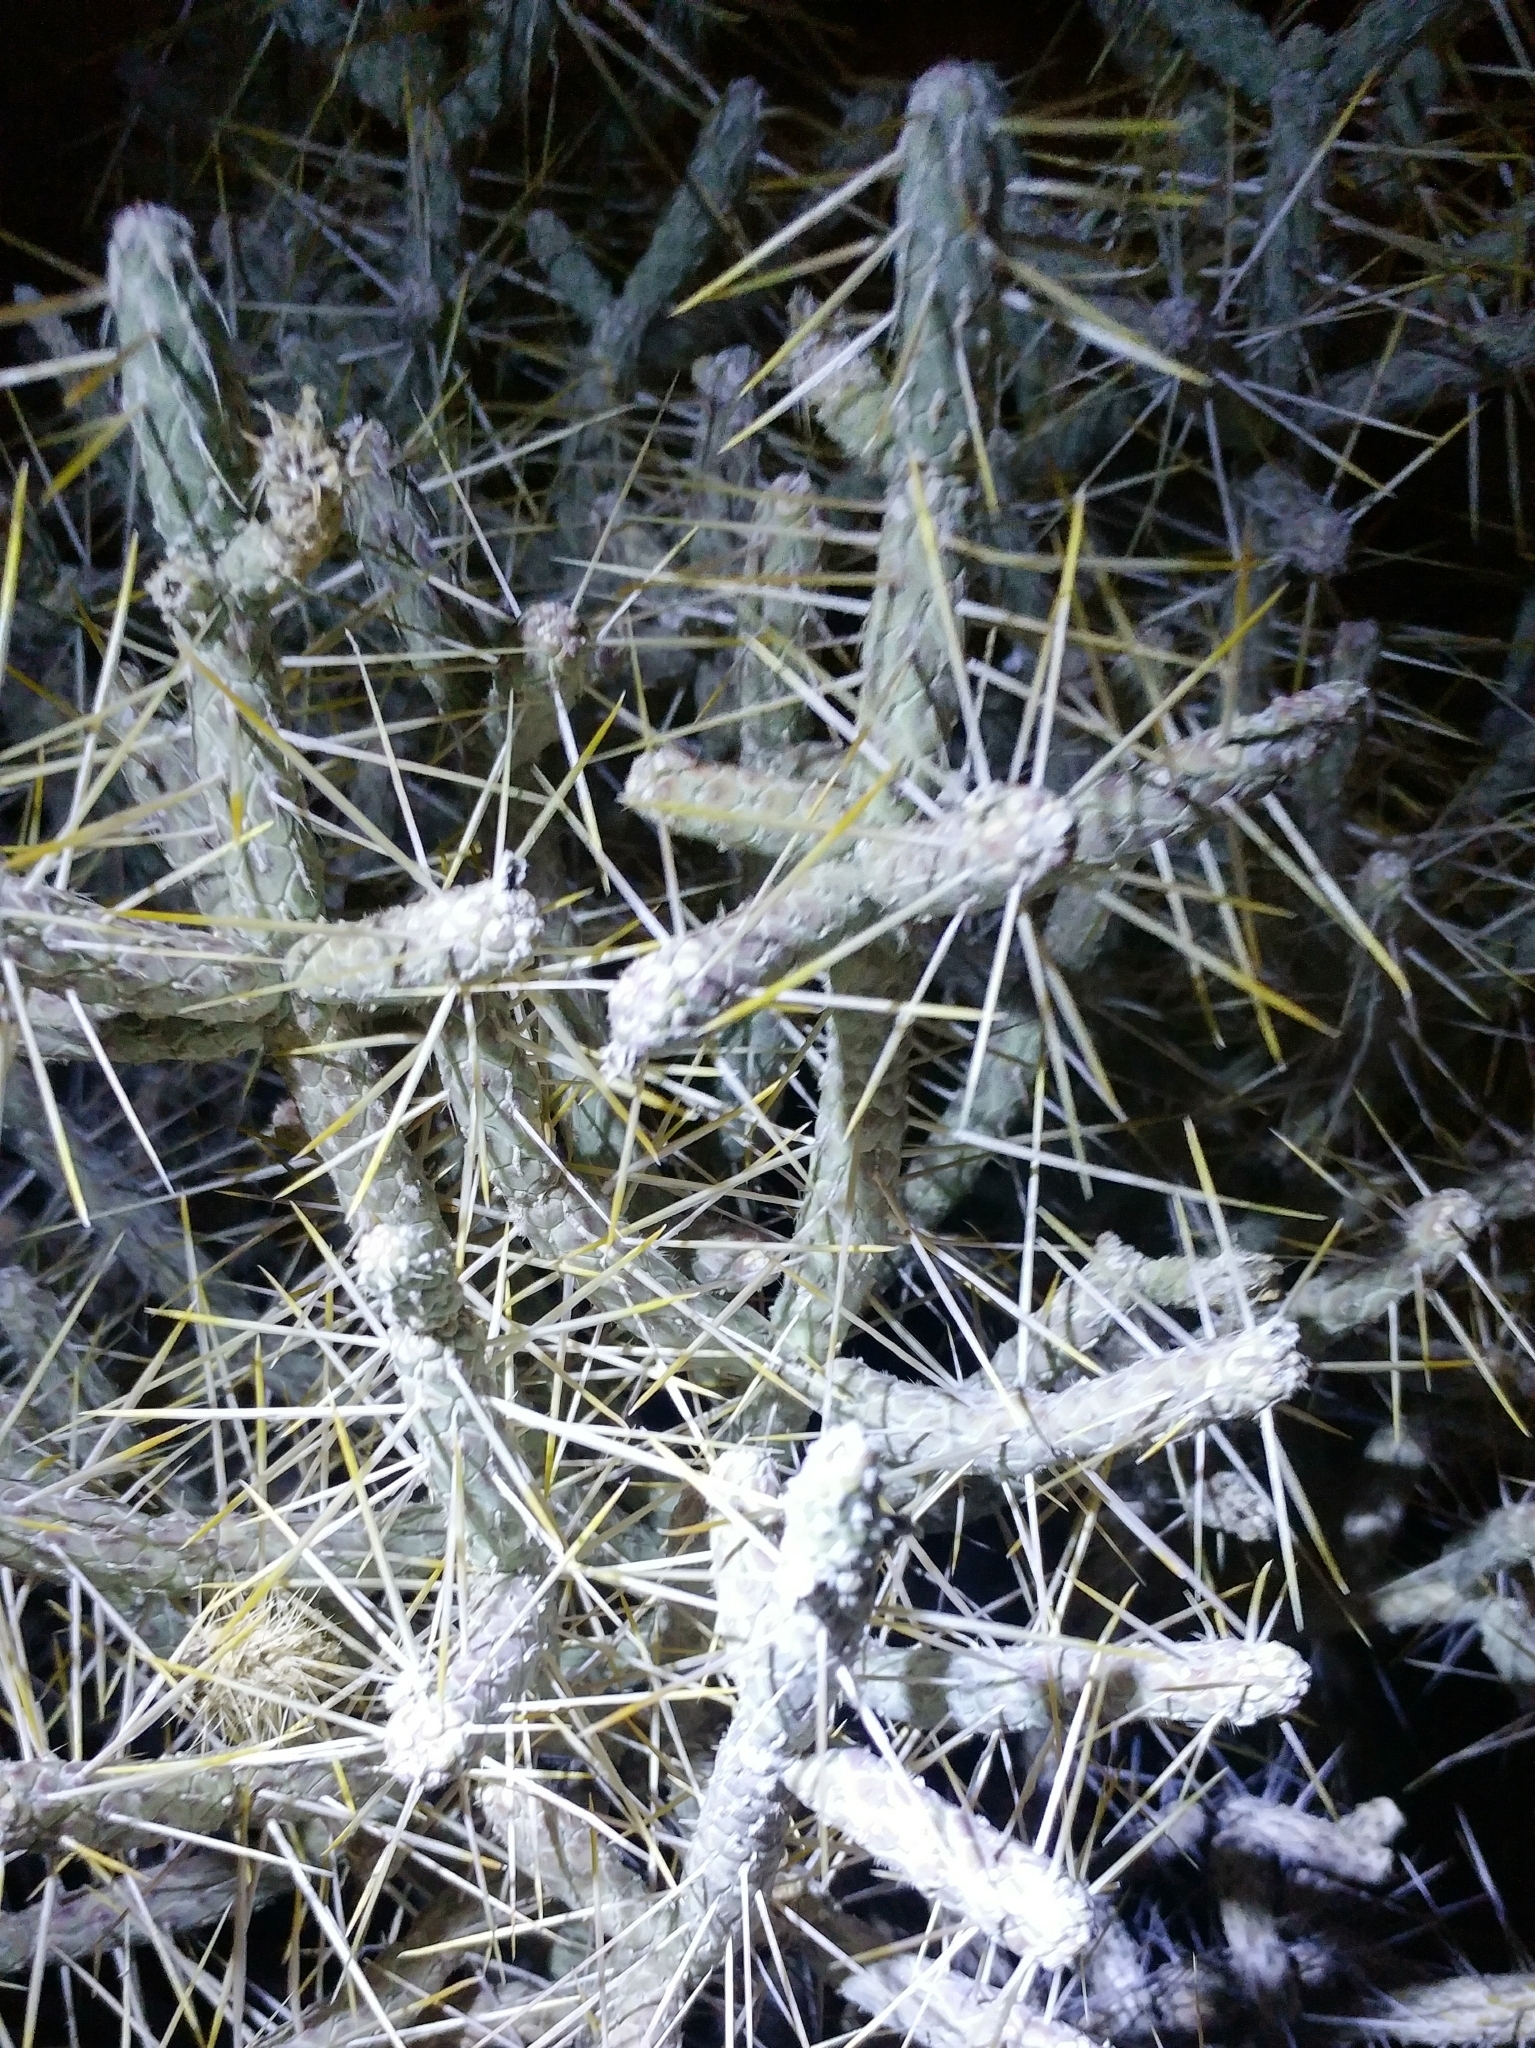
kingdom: Plantae
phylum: Tracheophyta
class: Magnoliopsida
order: Caryophyllales
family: Cactaceae
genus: Cylindropuntia
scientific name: Cylindropuntia ramosissima
